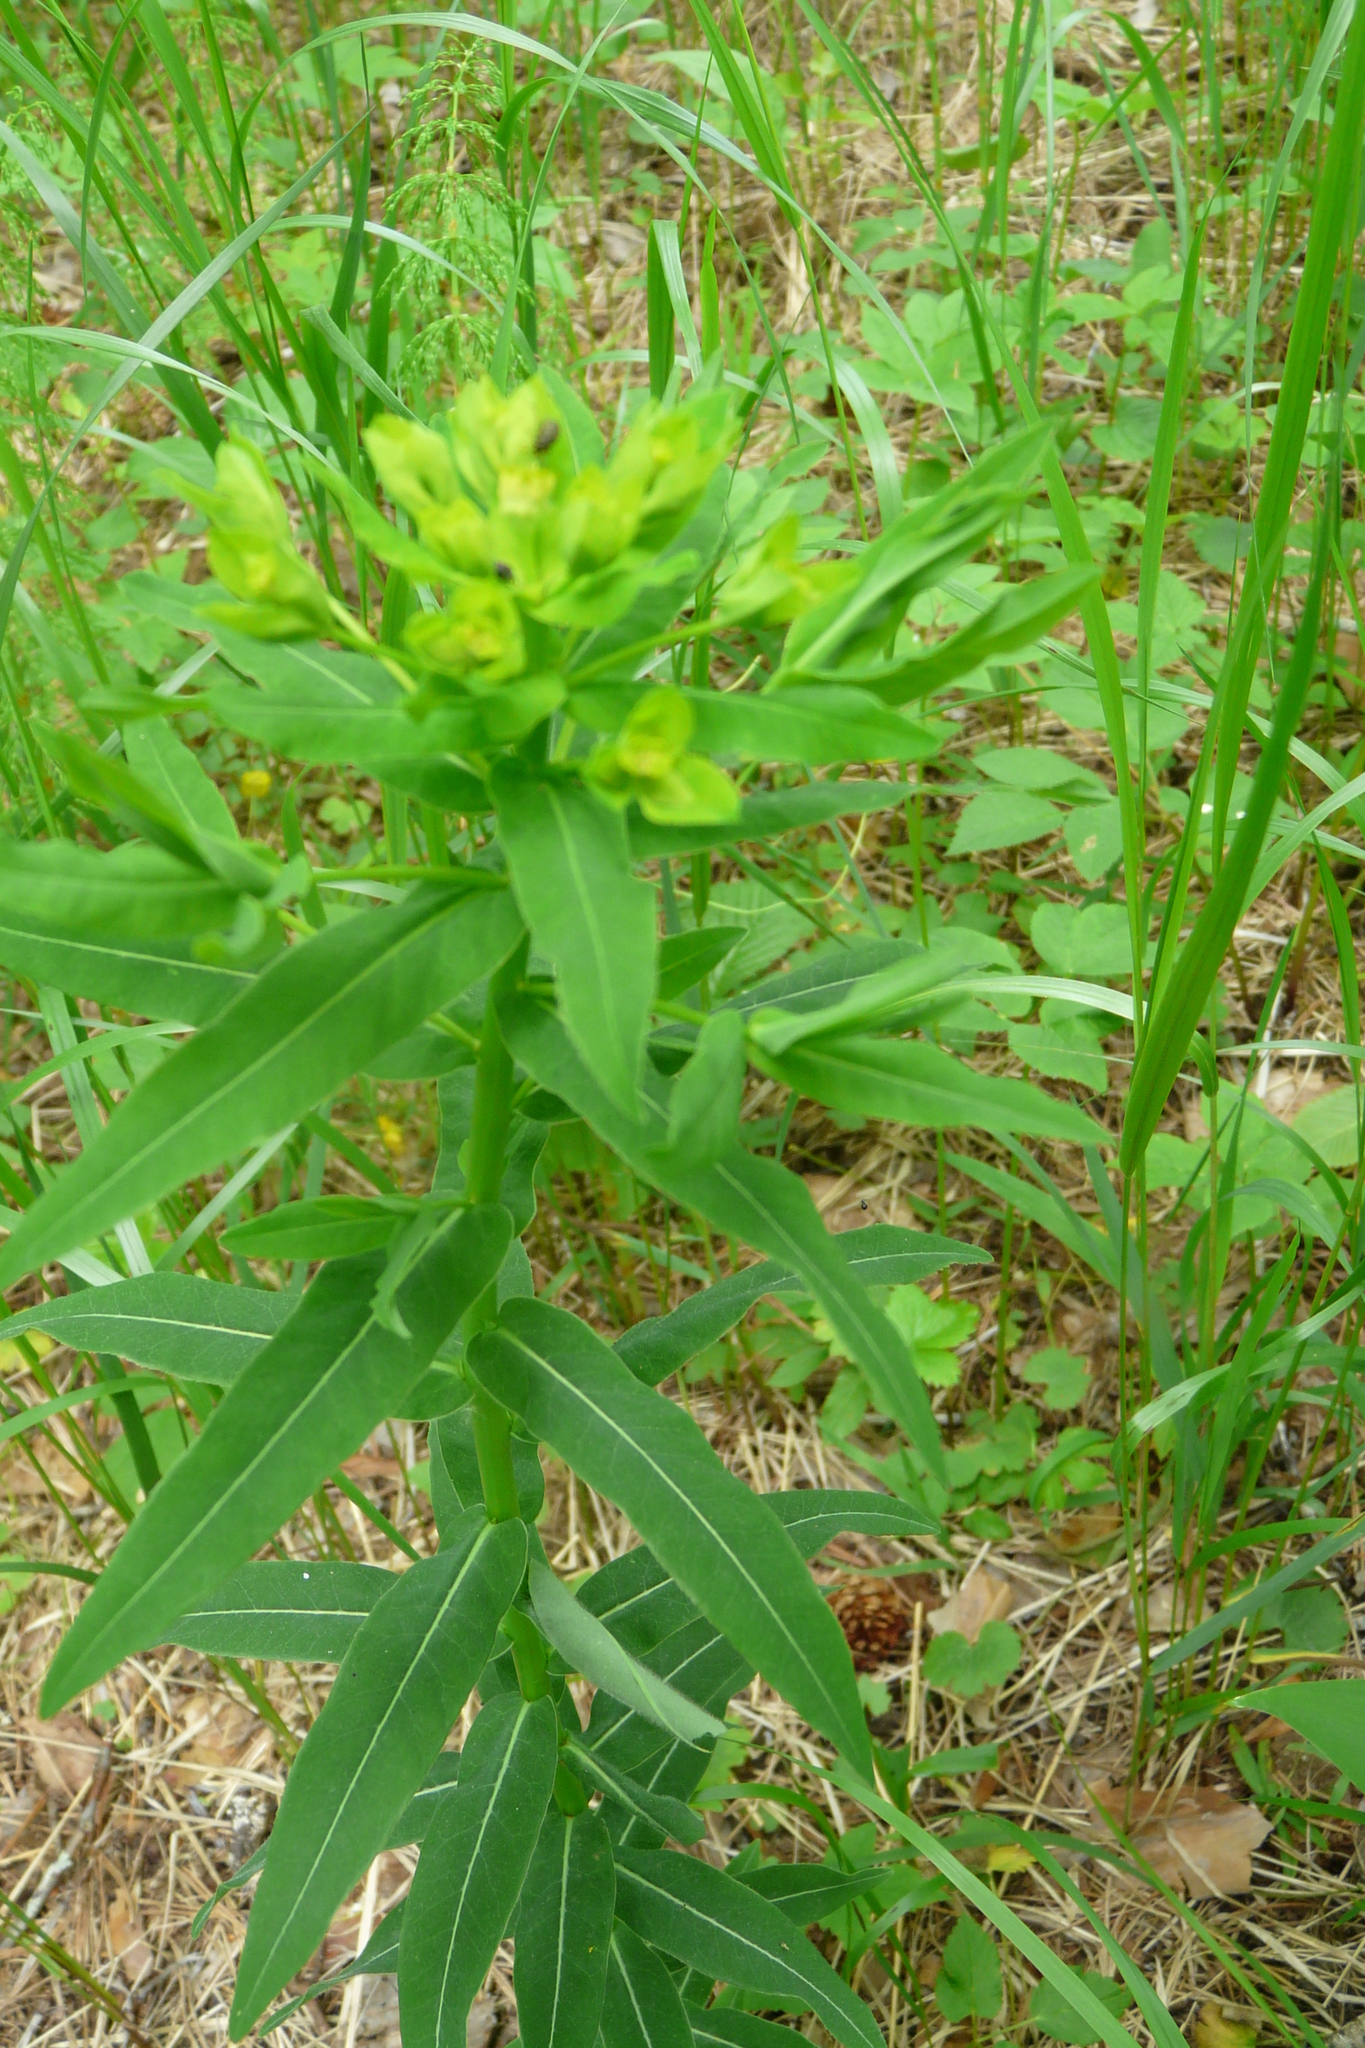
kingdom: Plantae
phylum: Tracheophyta
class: Magnoliopsida
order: Malpighiales
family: Euphorbiaceae
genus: Euphorbia
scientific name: Euphorbia semivillosa
